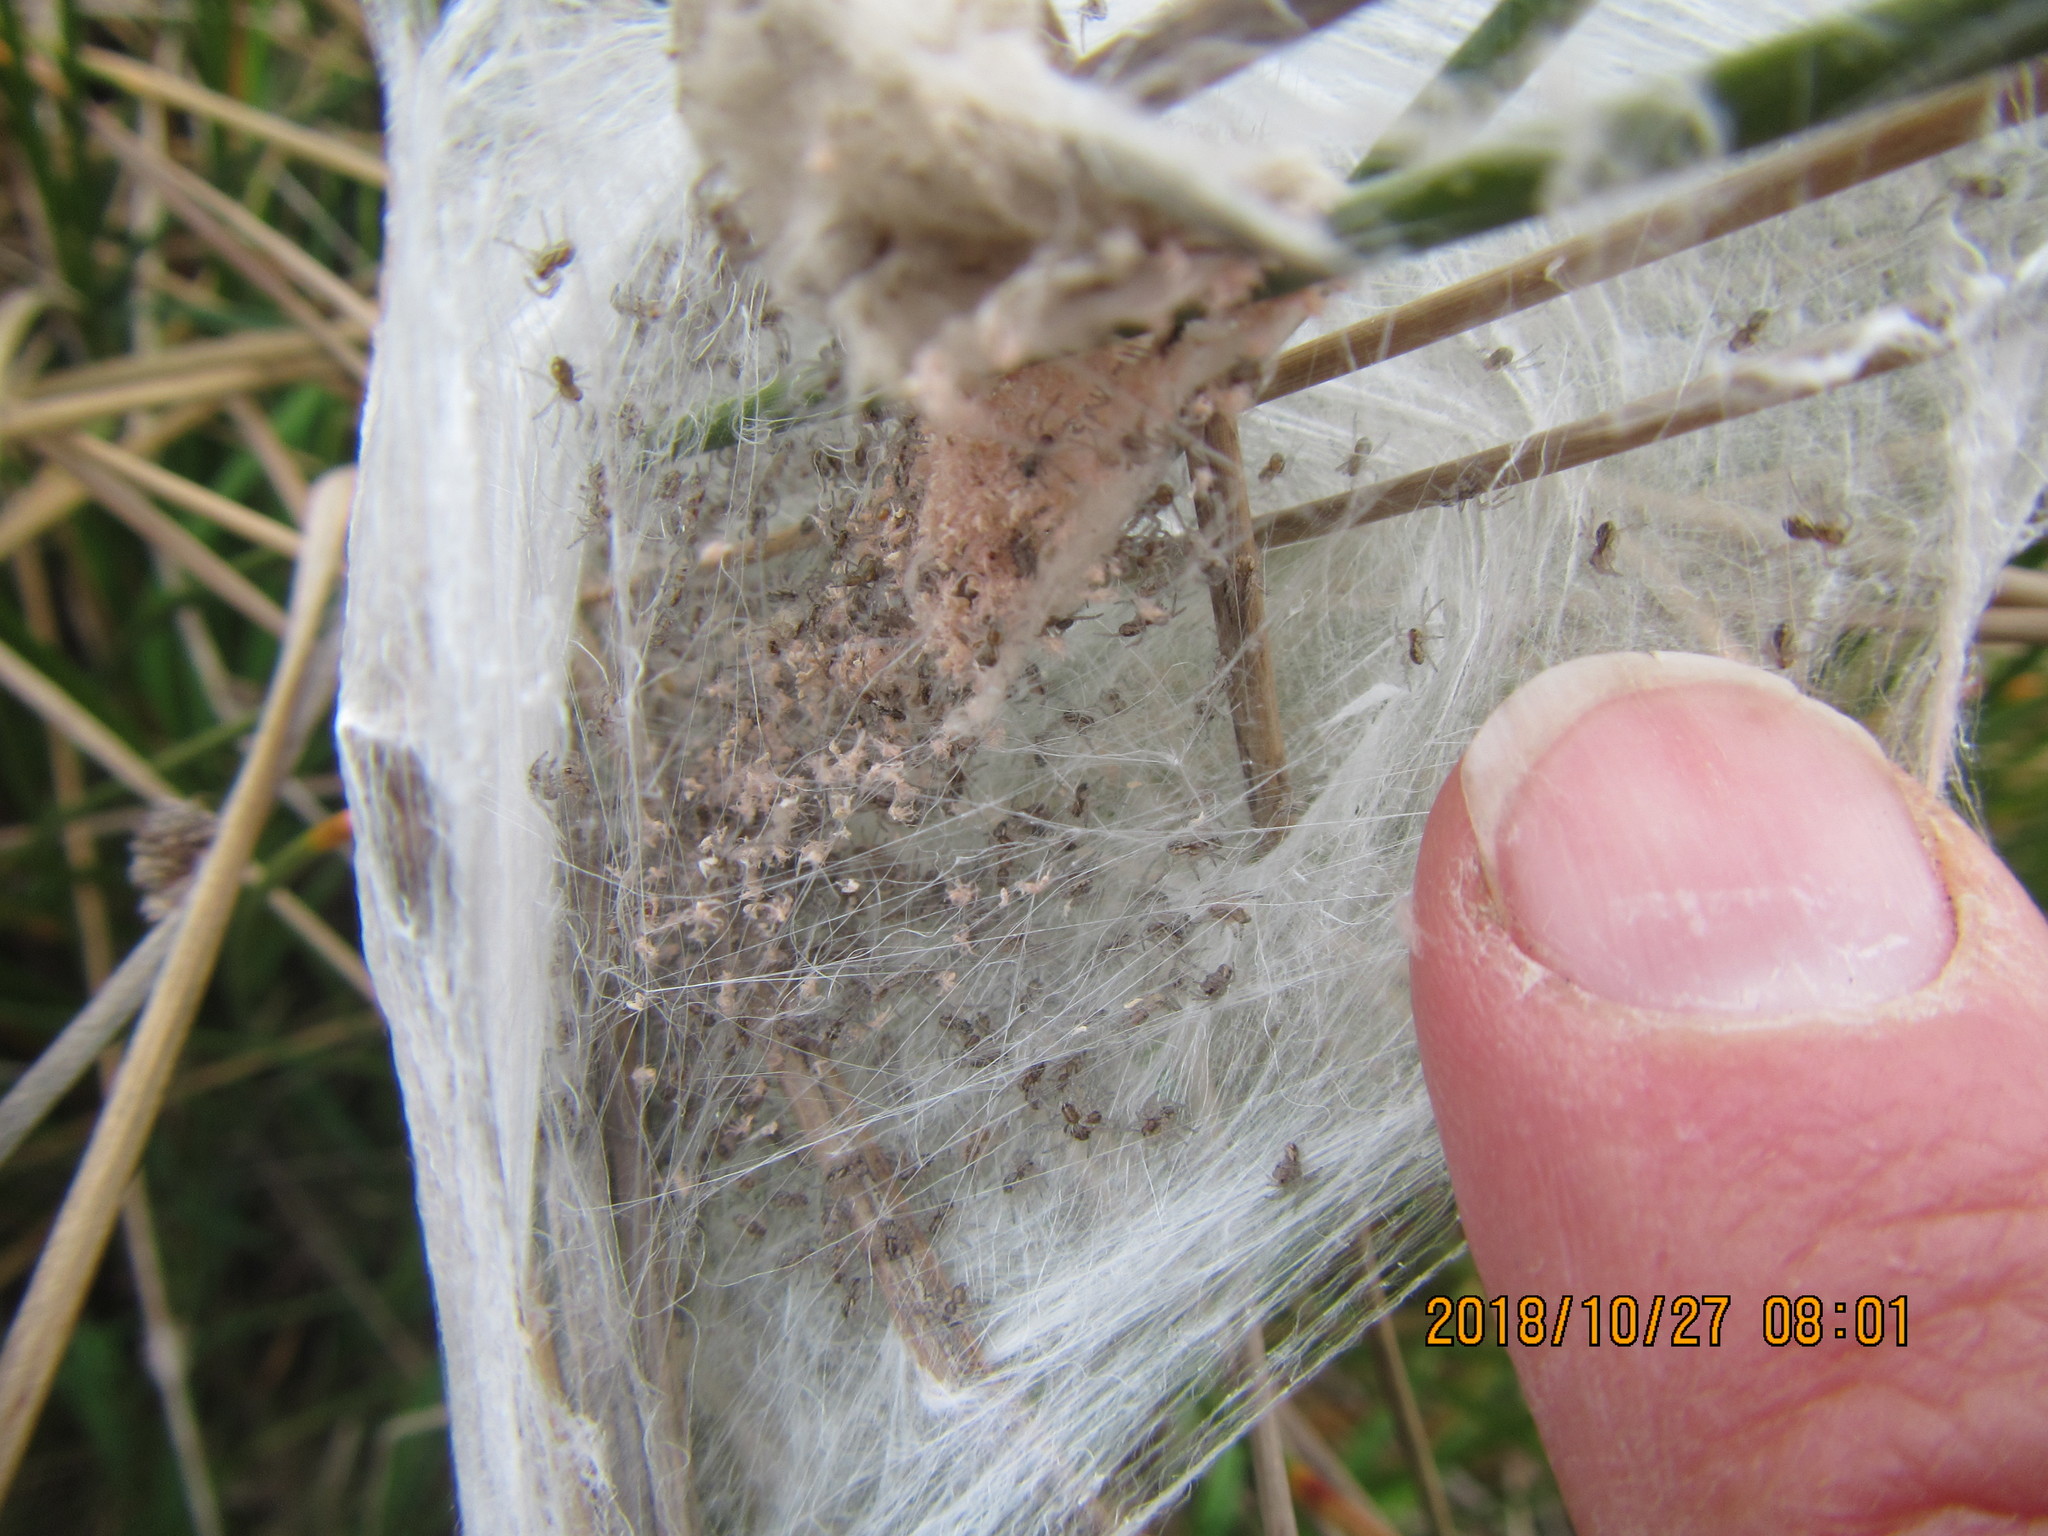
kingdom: Animalia
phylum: Arthropoda
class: Arachnida
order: Araneae
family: Pisauridae
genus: Dolomedes
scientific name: Dolomedes minor
